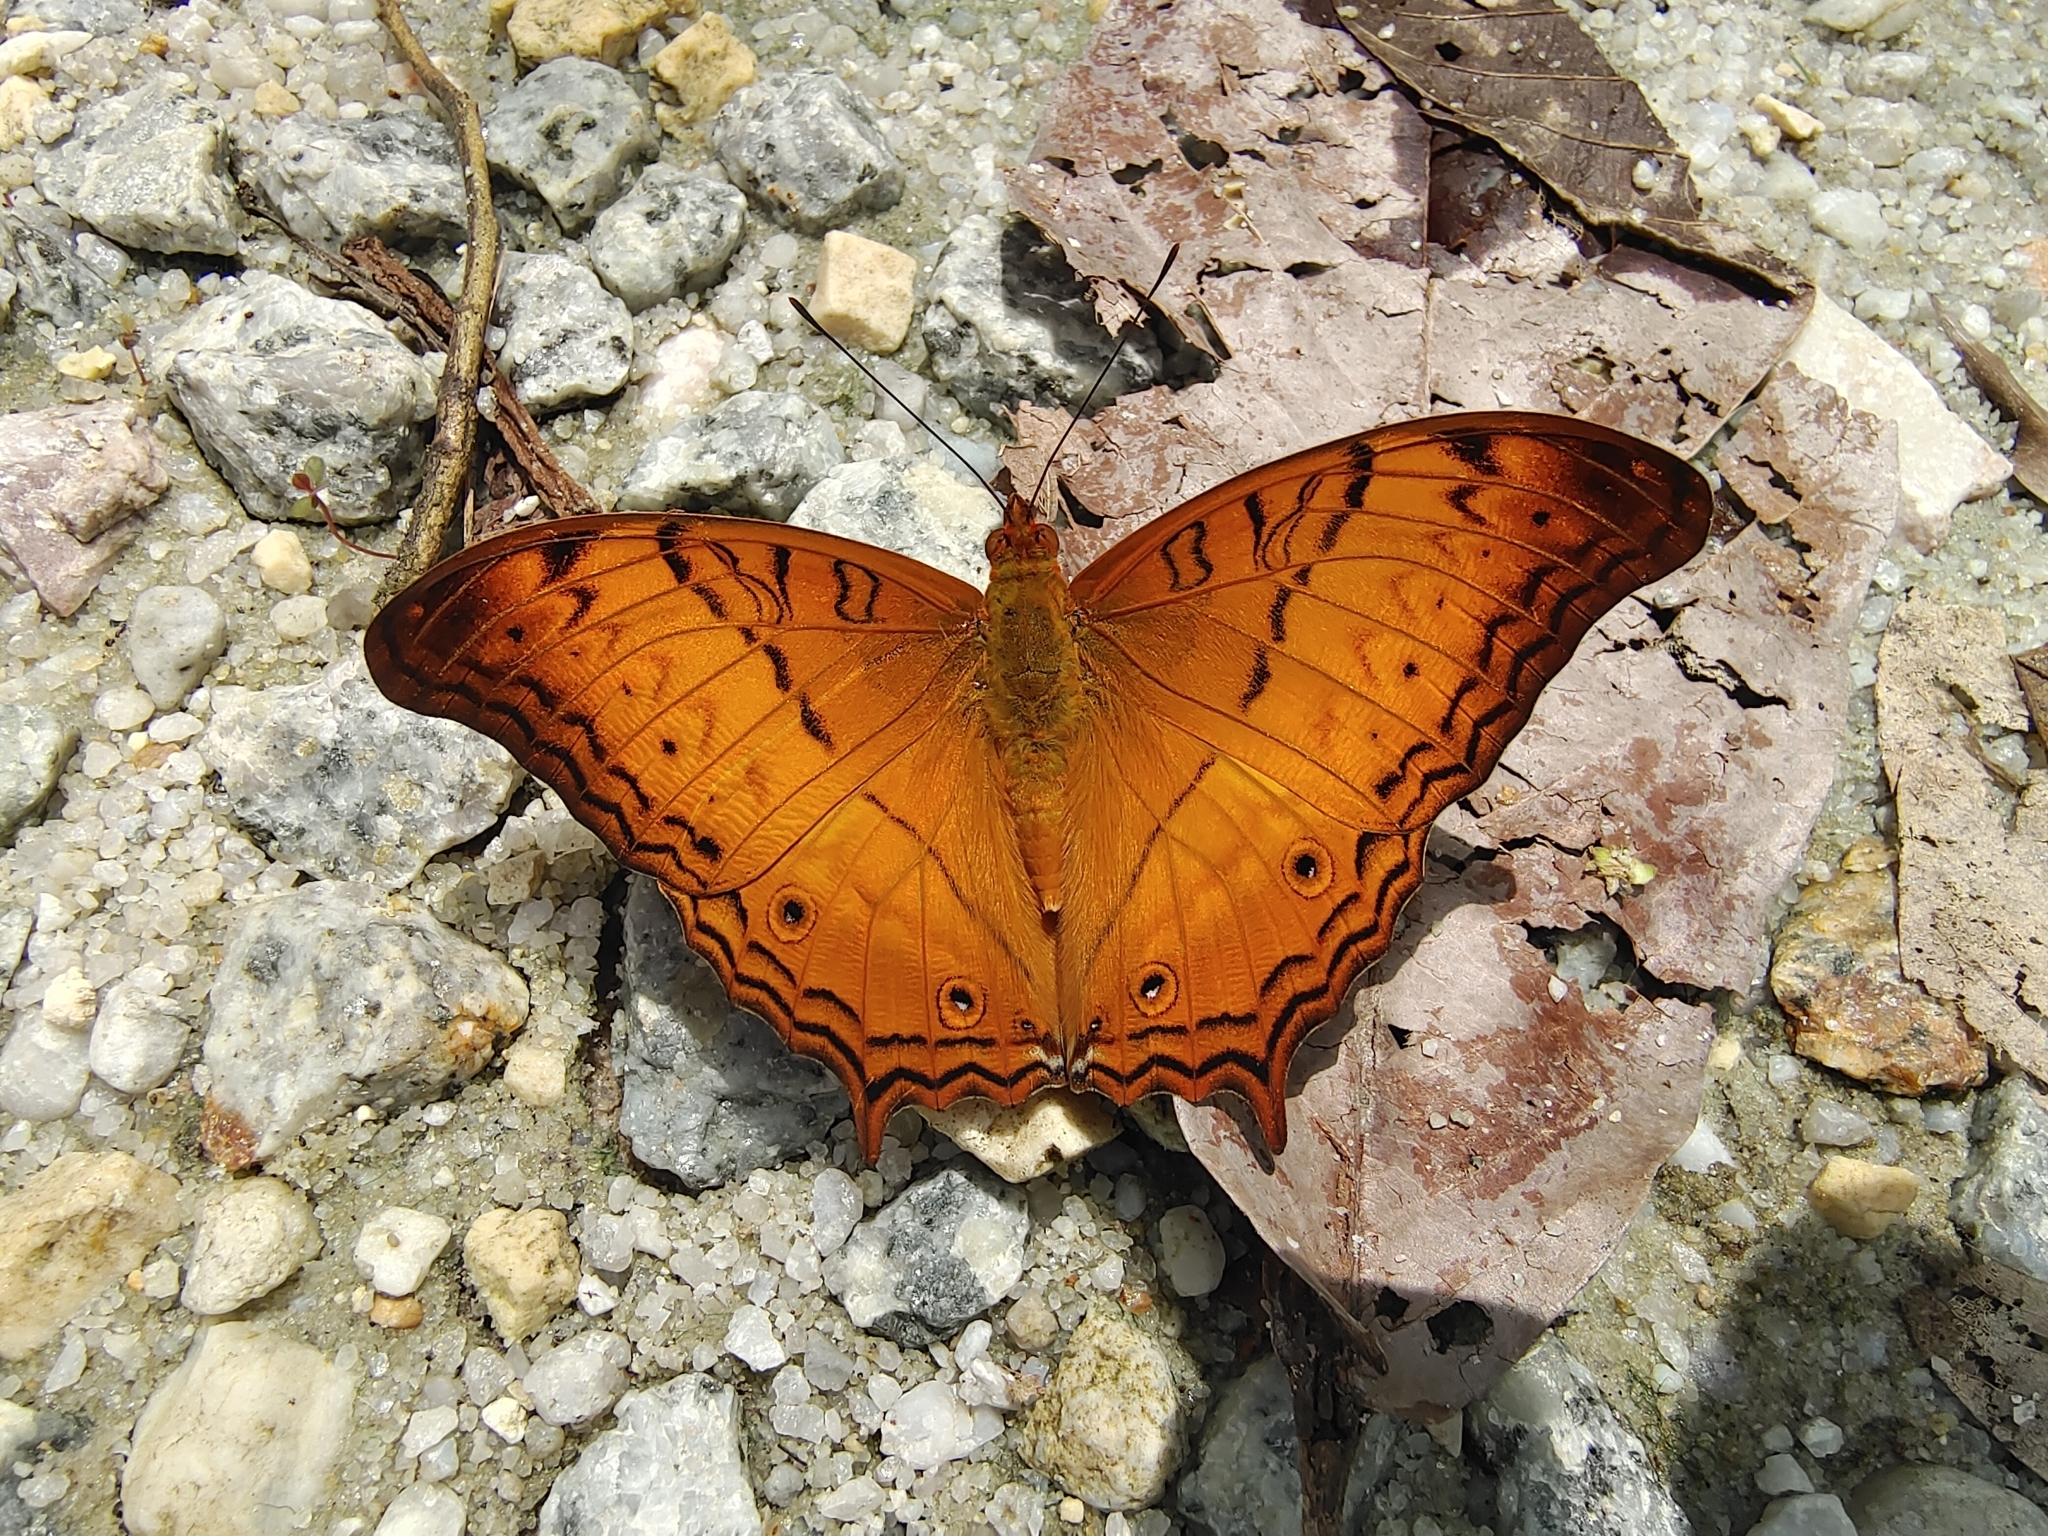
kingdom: Animalia
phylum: Arthropoda
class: Insecta
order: Lepidoptera
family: Nymphalidae
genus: Vindula
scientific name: Vindula deione
